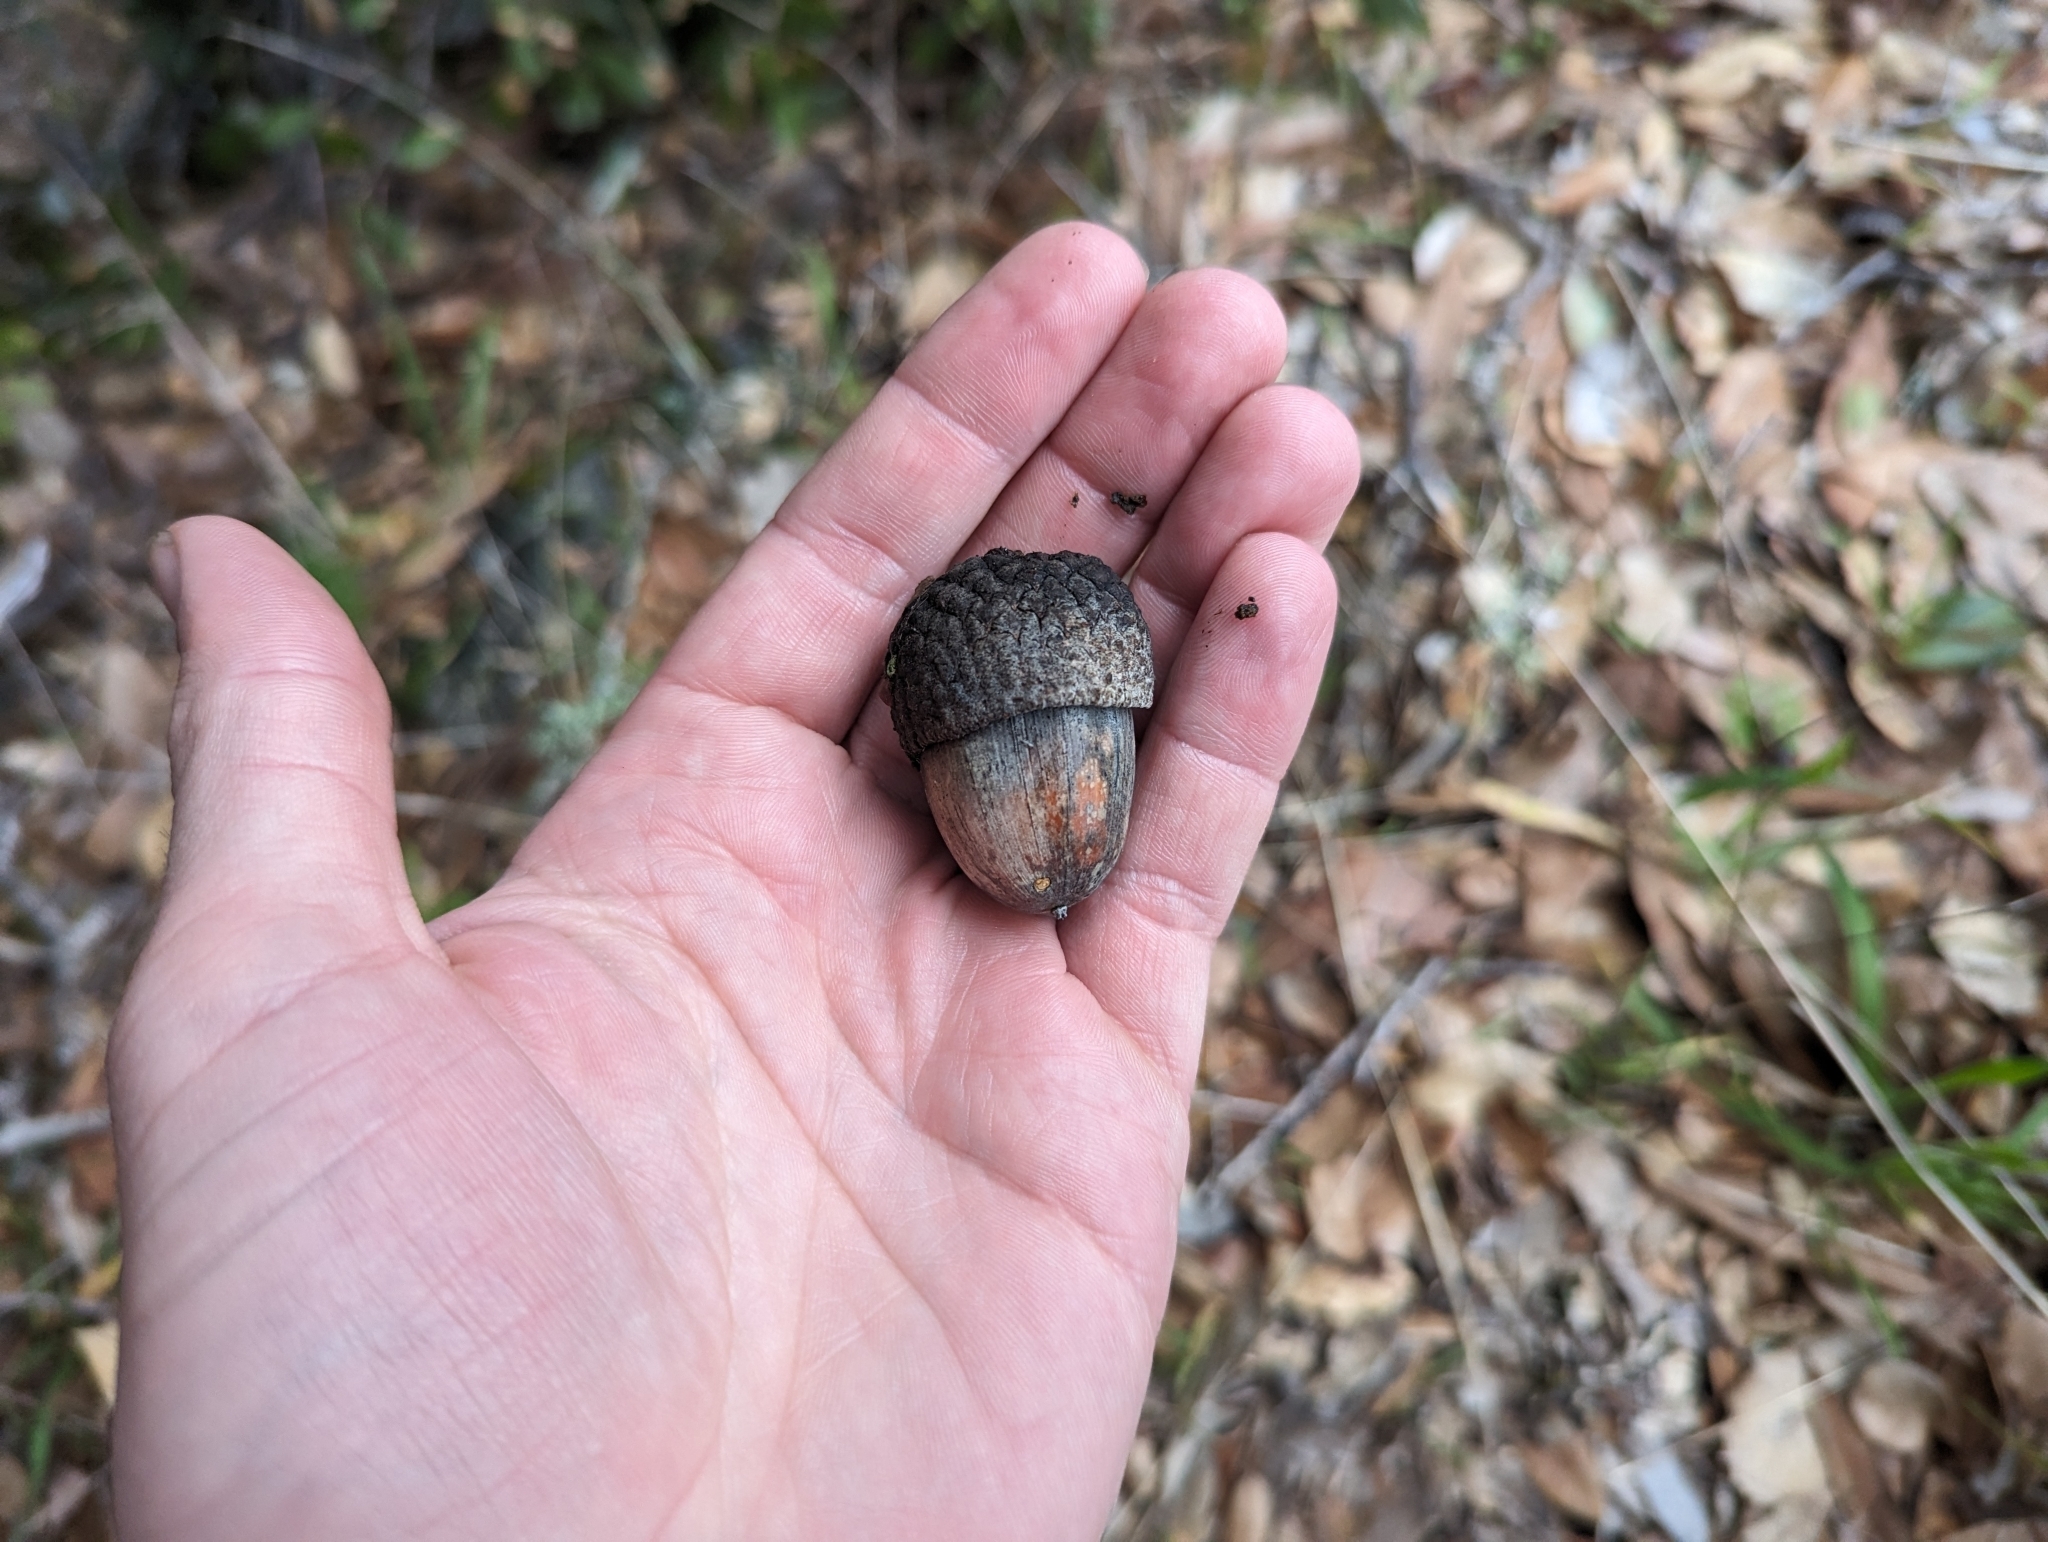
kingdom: Plantae
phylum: Tracheophyta
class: Magnoliopsida
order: Fagales
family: Fagaceae
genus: Quercus
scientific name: Quercus chrysolepis
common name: Canyon live oak
